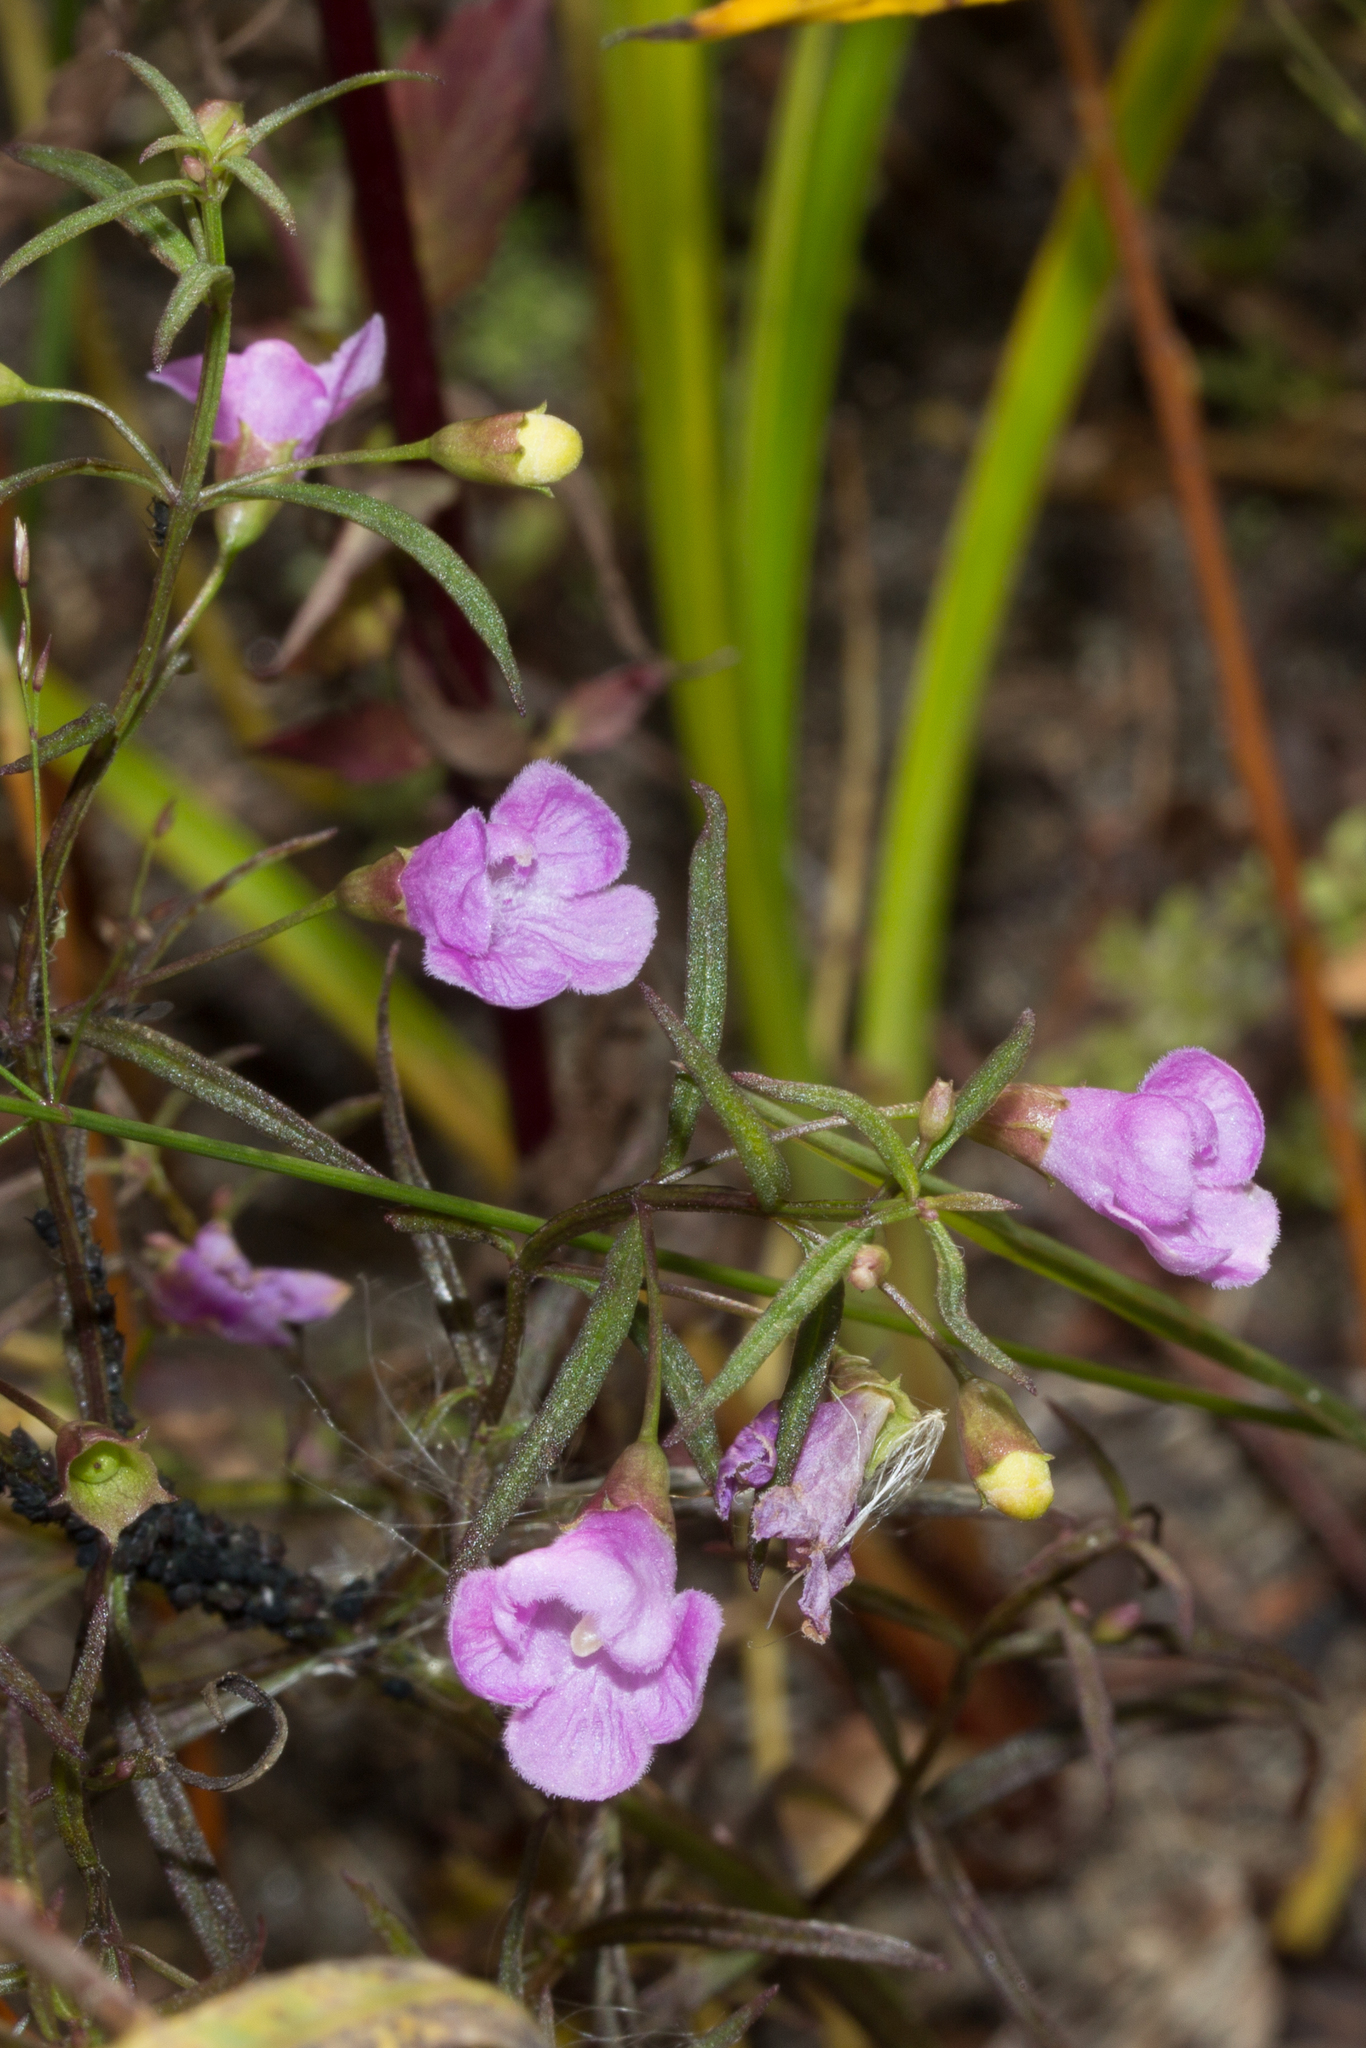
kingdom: Plantae
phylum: Tracheophyta
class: Magnoliopsida
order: Lamiales
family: Orobanchaceae
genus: Agalinis
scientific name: Agalinis tenuifolia
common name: Slender agalinis
